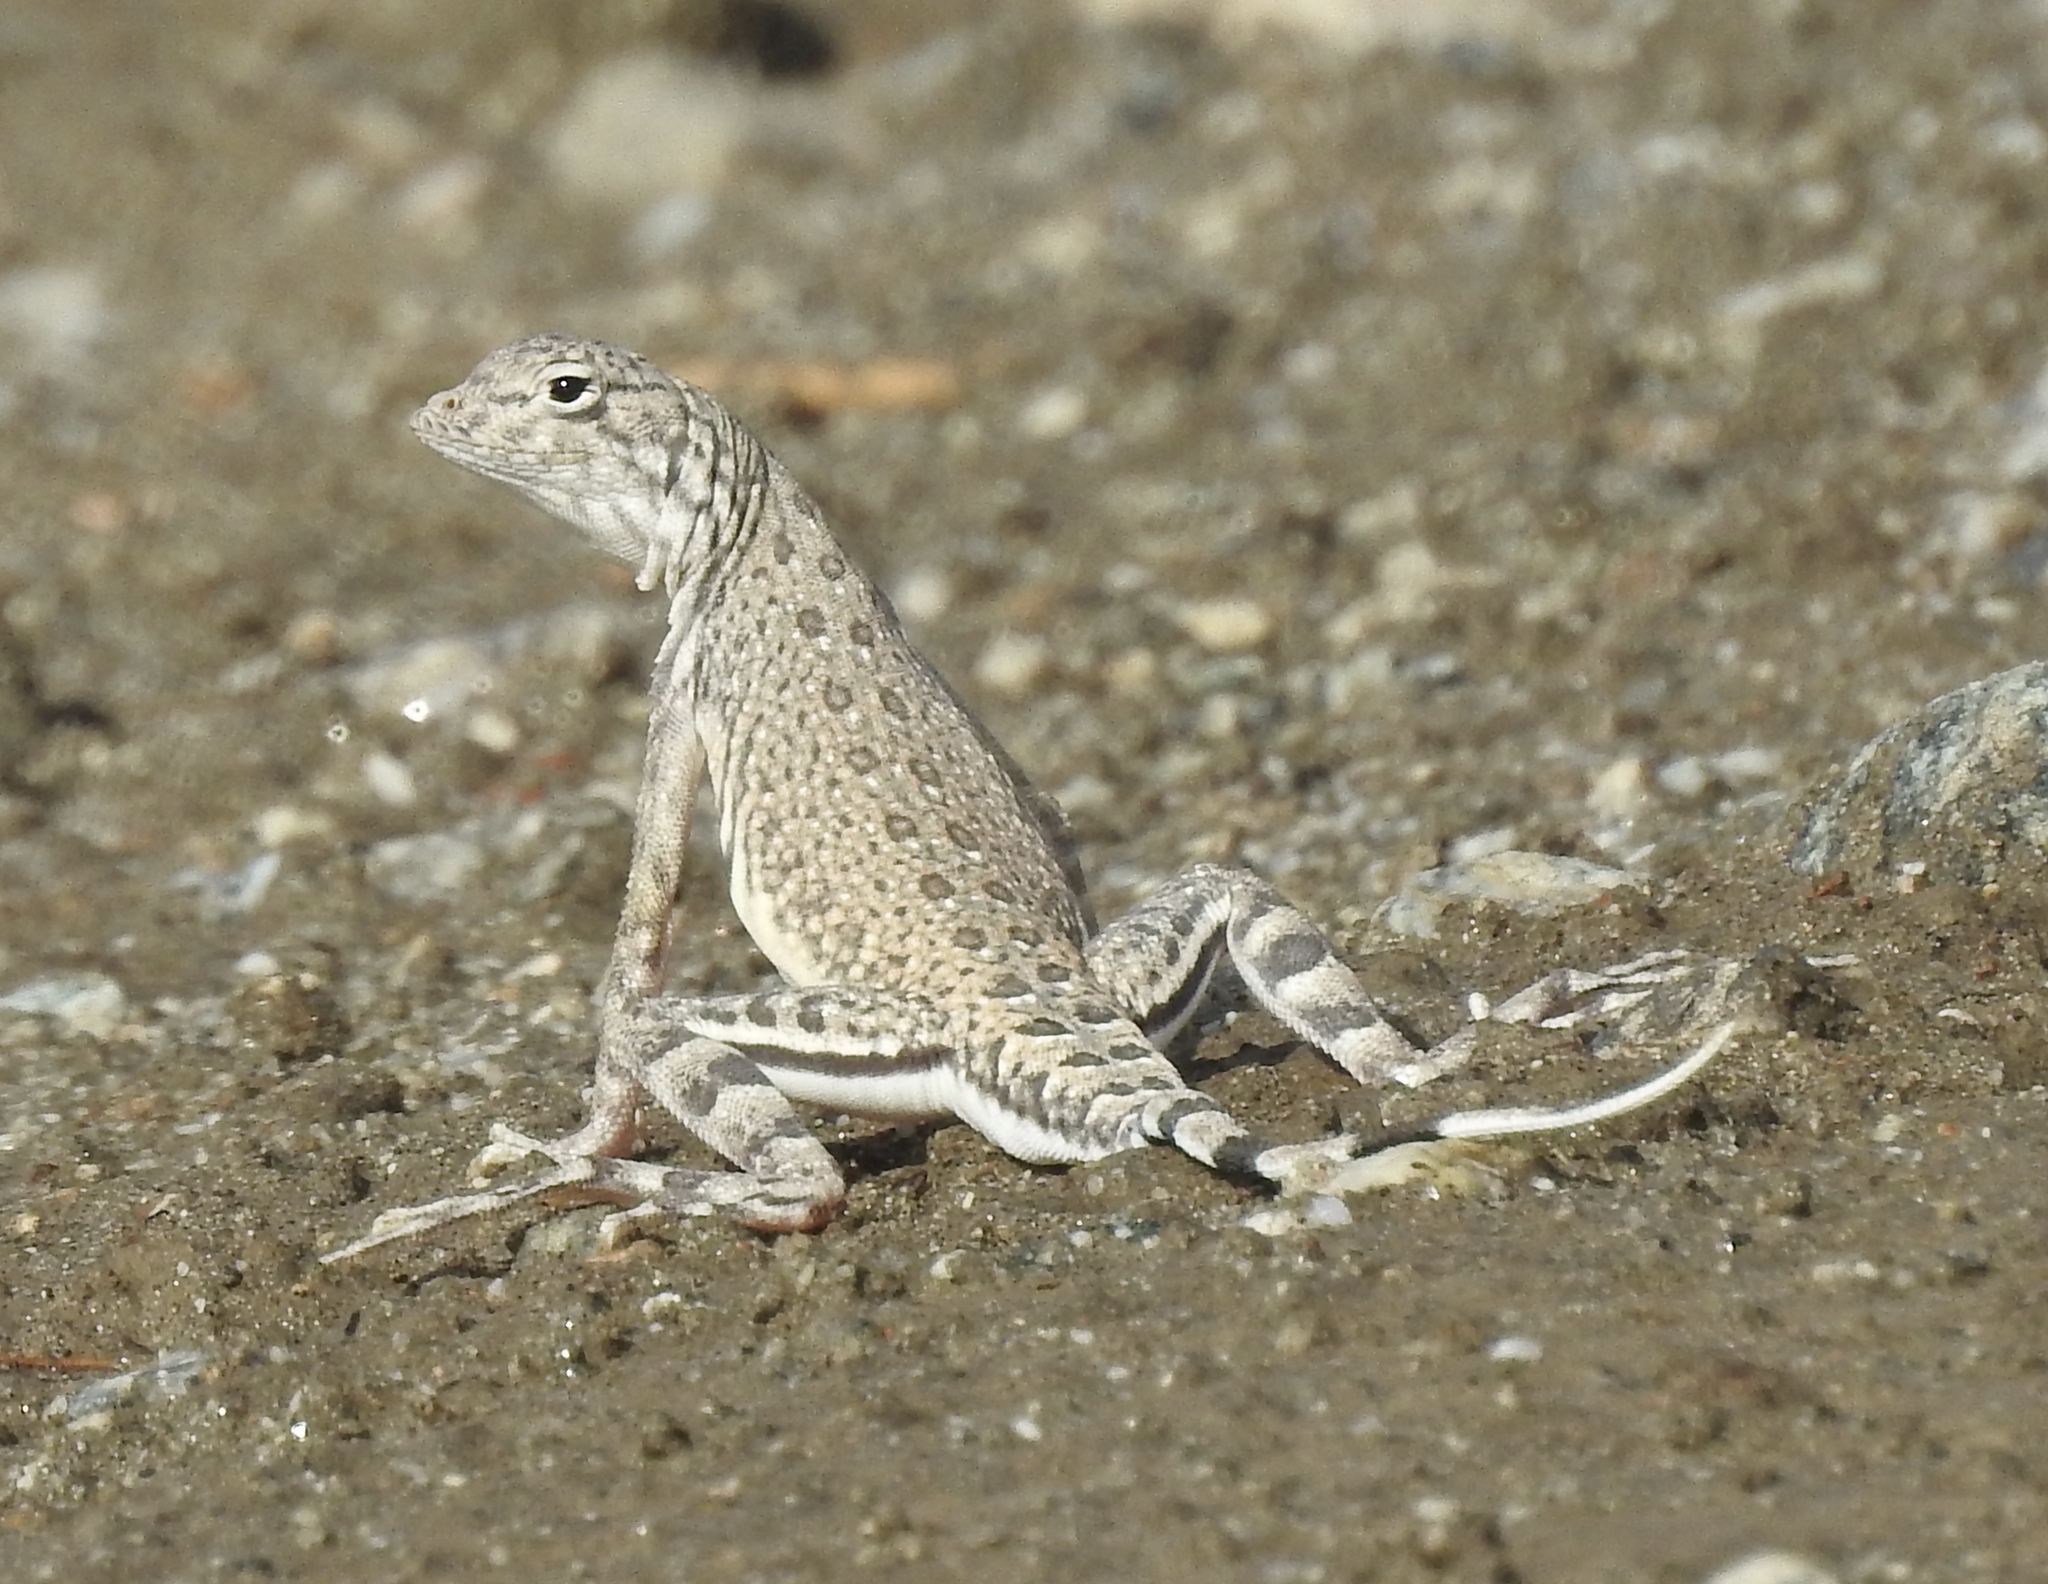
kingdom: Animalia
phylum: Chordata
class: Squamata
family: Phrynosomatidae
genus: Callisaurus
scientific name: Callisaurus draconoides
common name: Zebra-tailed lizard
